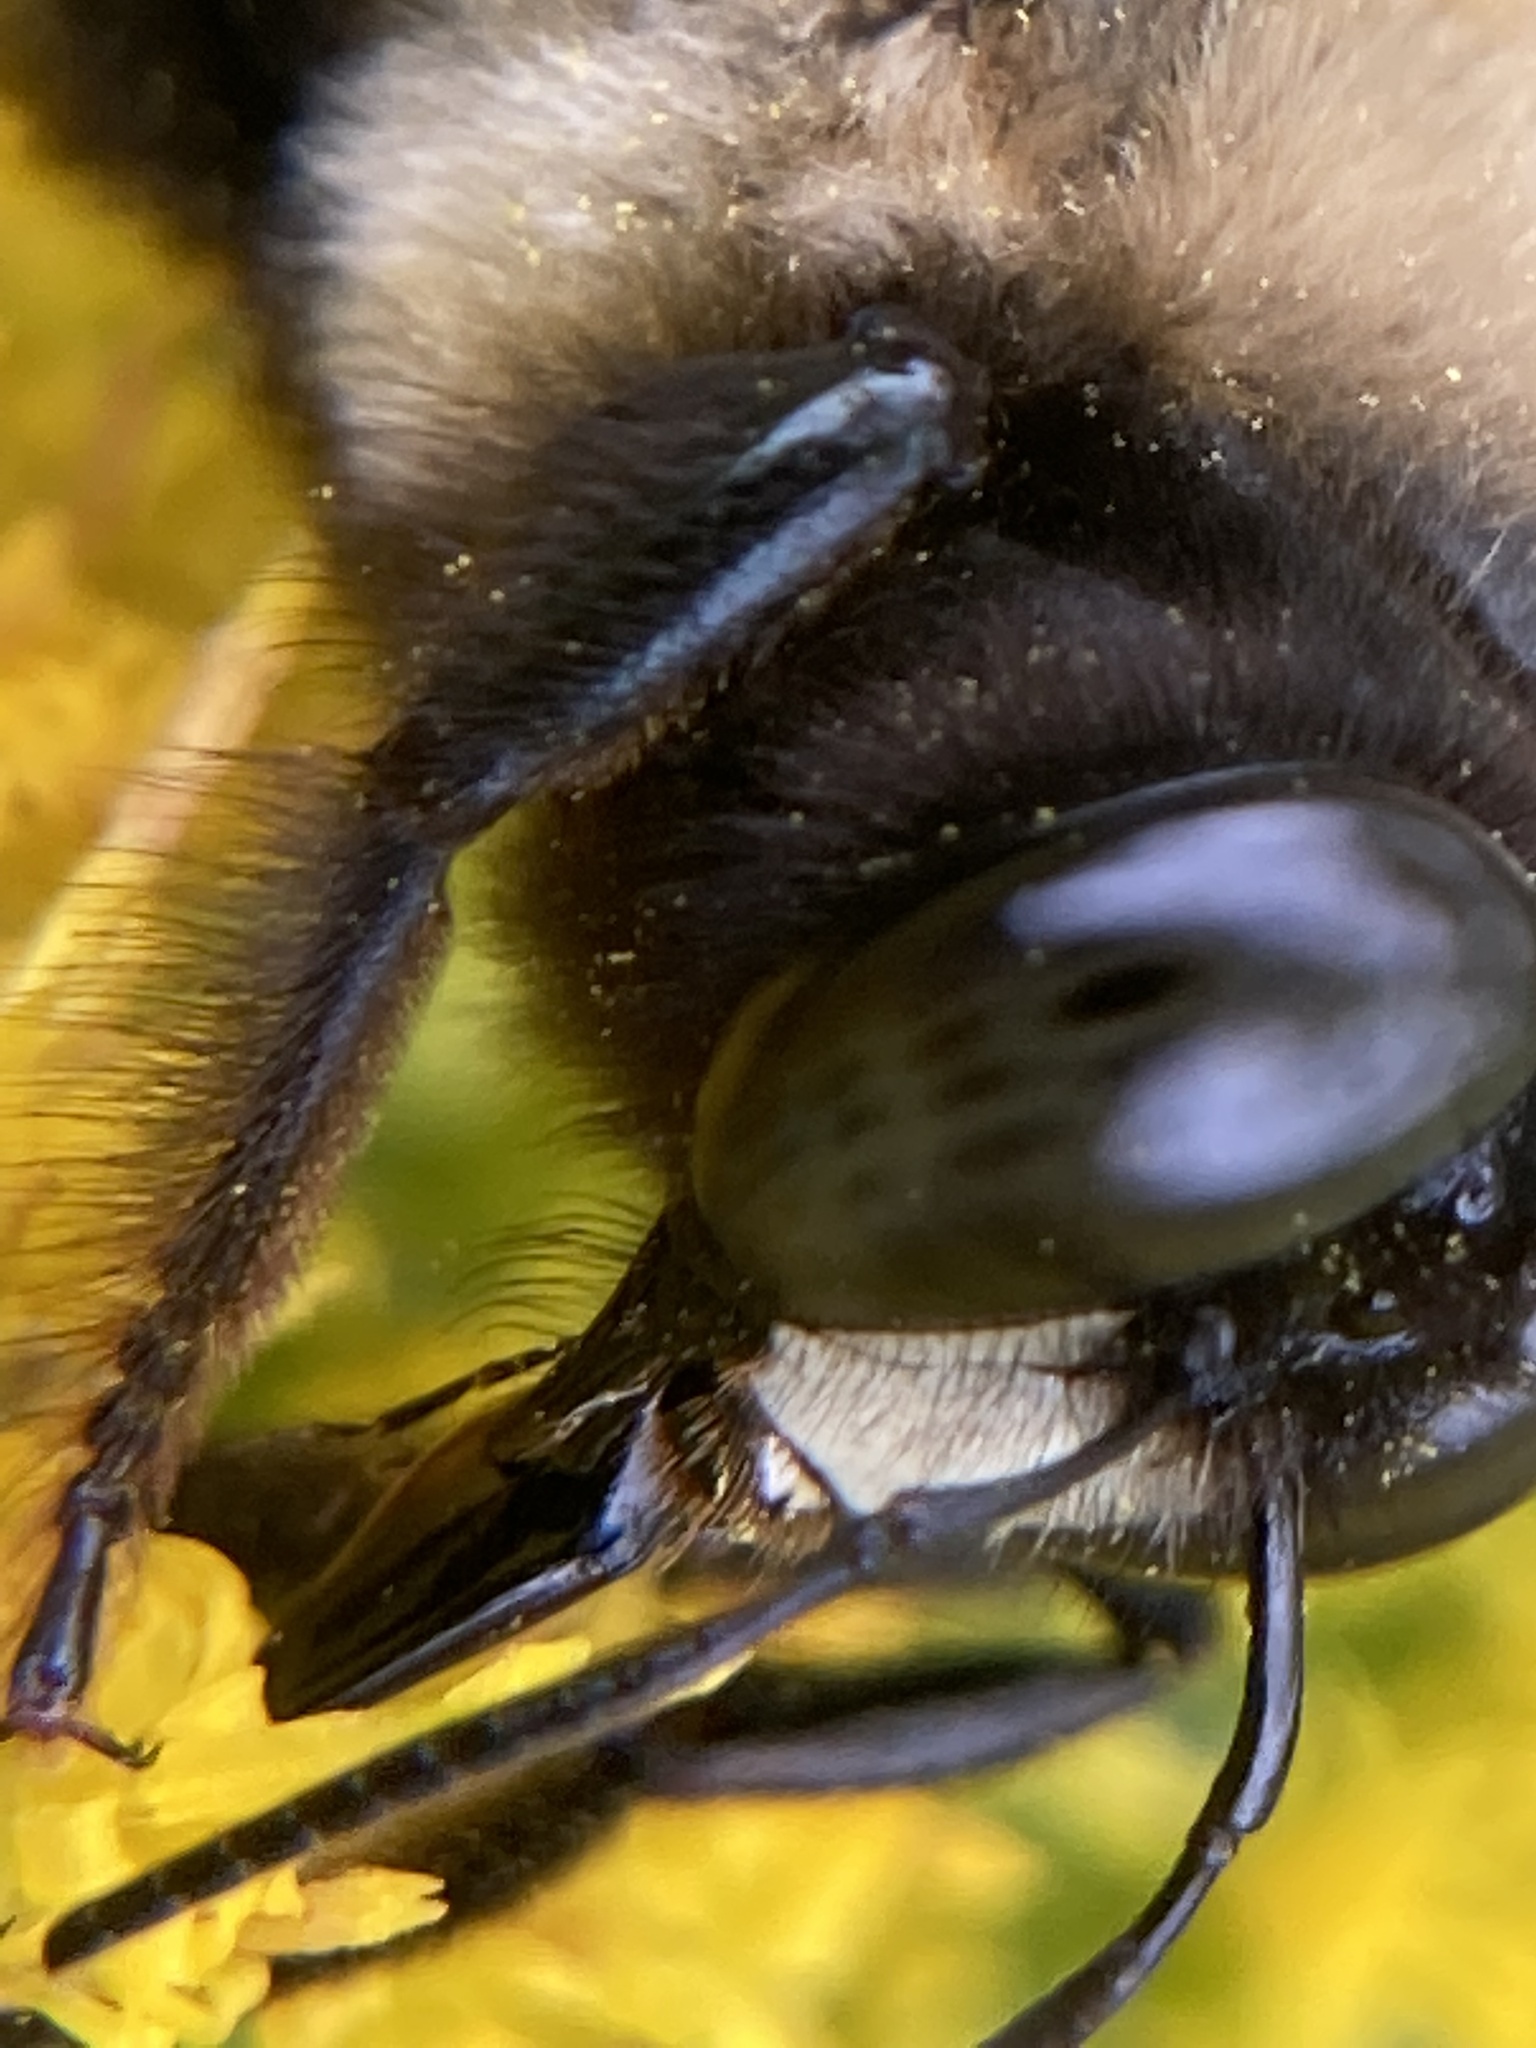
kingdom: Animalia
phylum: Arthropoda
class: Insecta
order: Hymenoptera
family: Apidae
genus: Xylocopa
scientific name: Xylocopa virginica
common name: Carpenter bee
